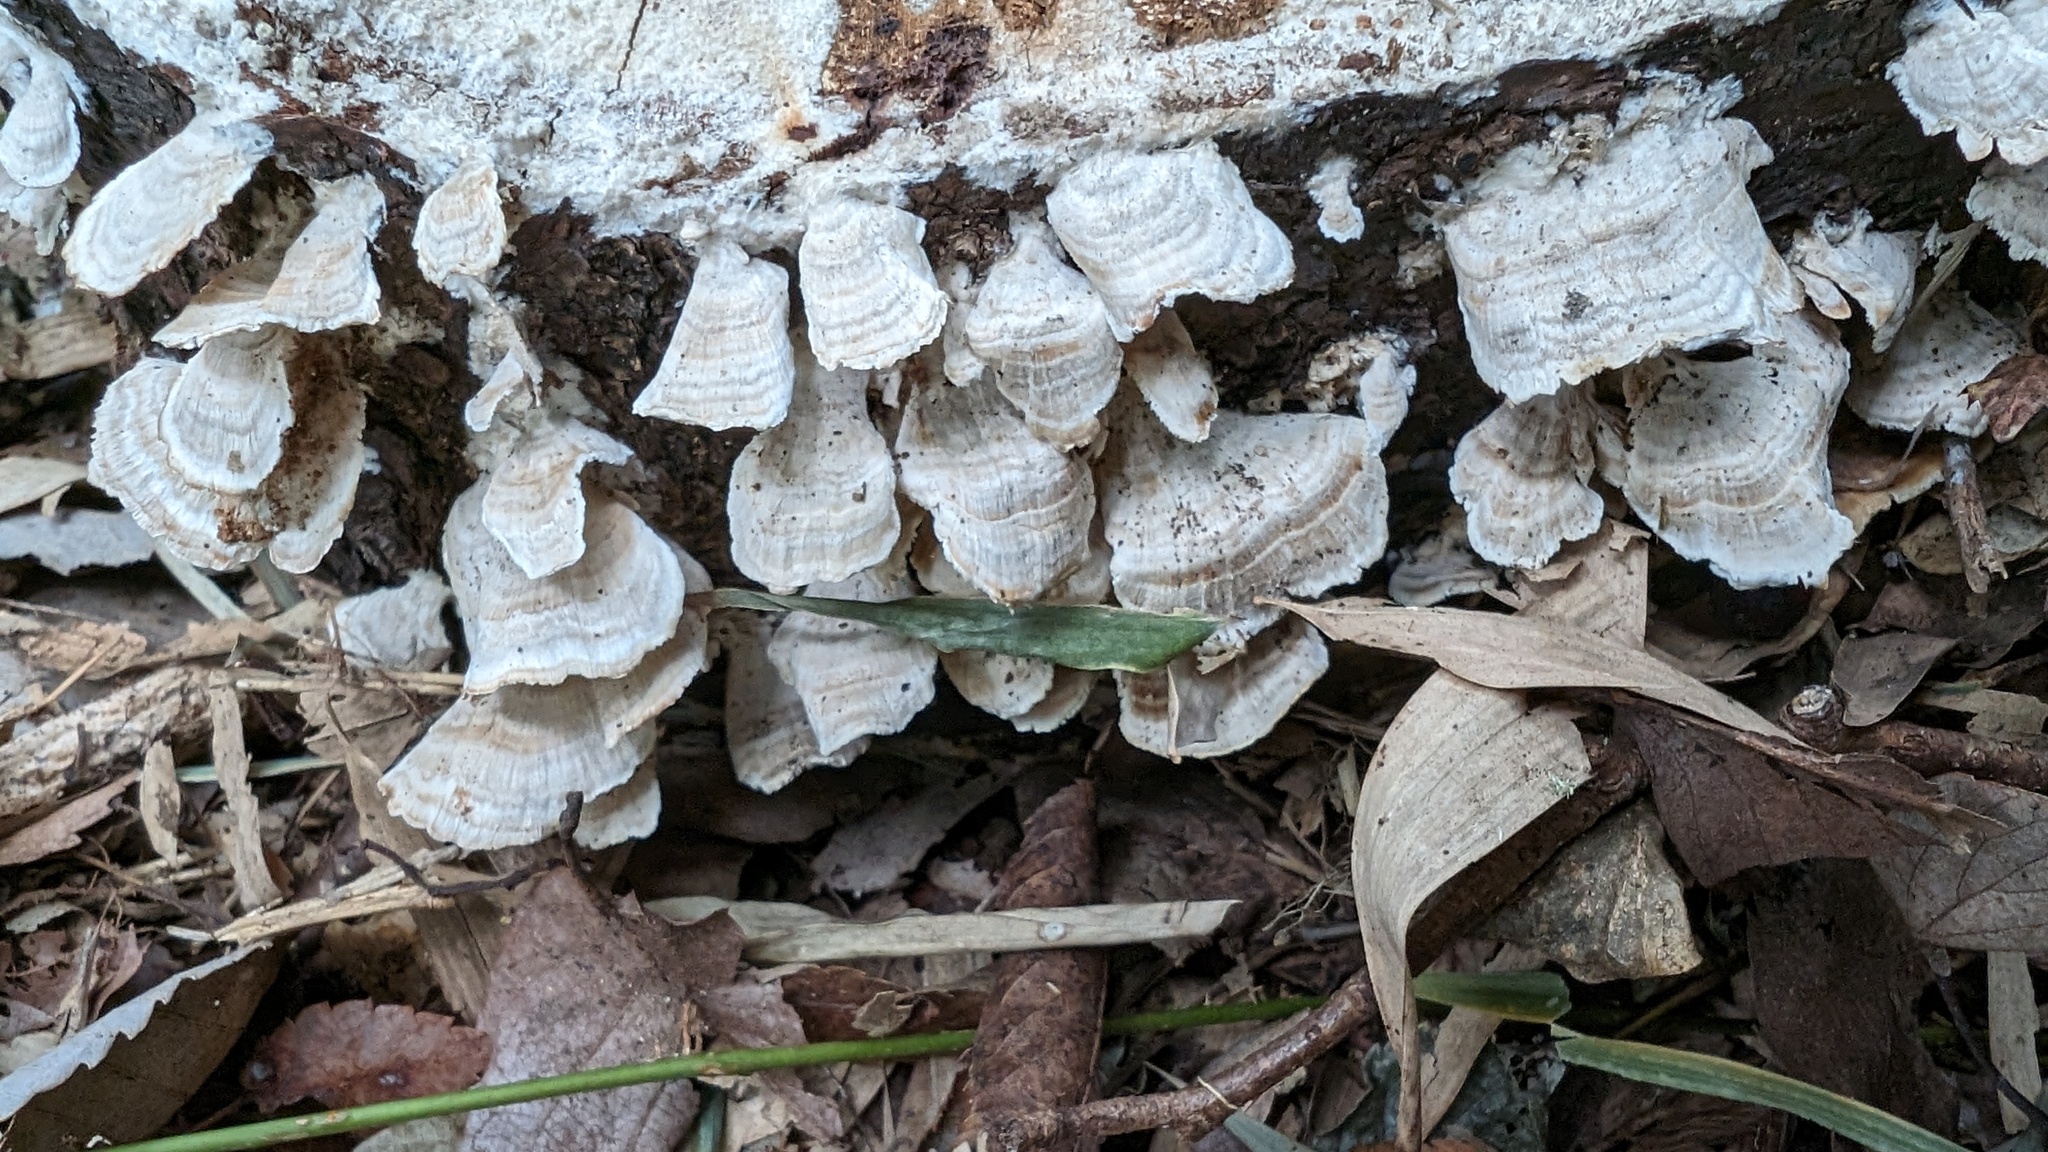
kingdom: Fungi
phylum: Basidiomycota
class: Agaricomycetes
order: Hymenochaetales
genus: Trichaptum
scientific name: Trichaptum biforme
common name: Violet-toothed polypore
